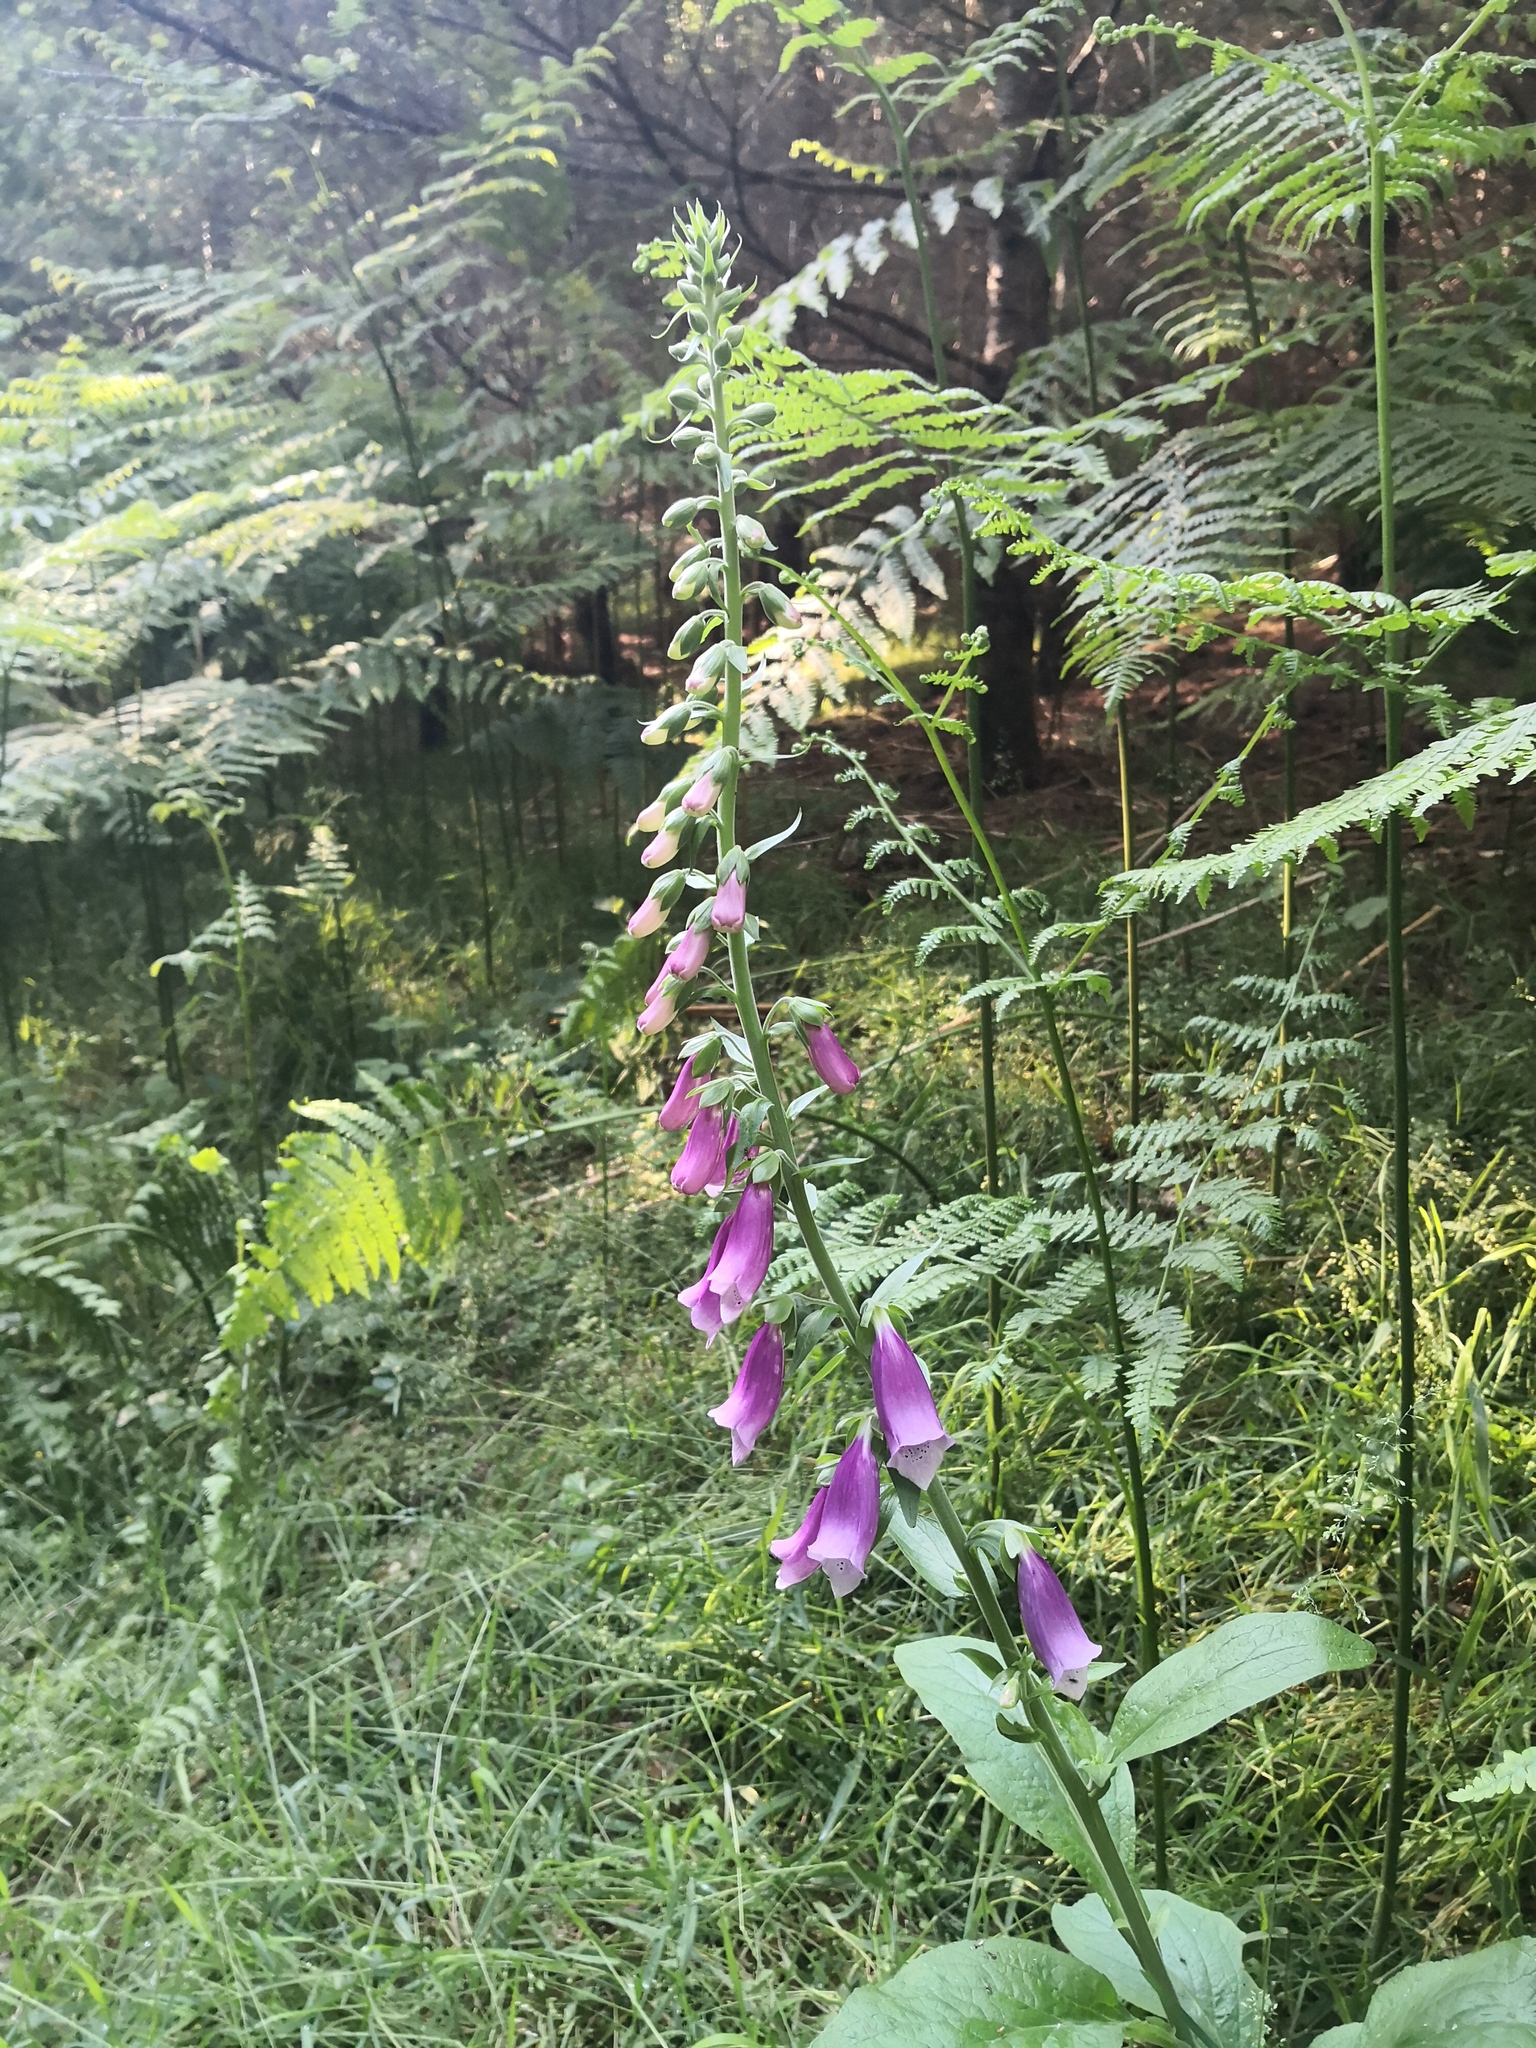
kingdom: Plantae
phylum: Tracheophyta
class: Magnoliopsida
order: Lamiales
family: Plantaginaceae
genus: Digitalis
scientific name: Digitalis purpurea
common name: Foxglove
